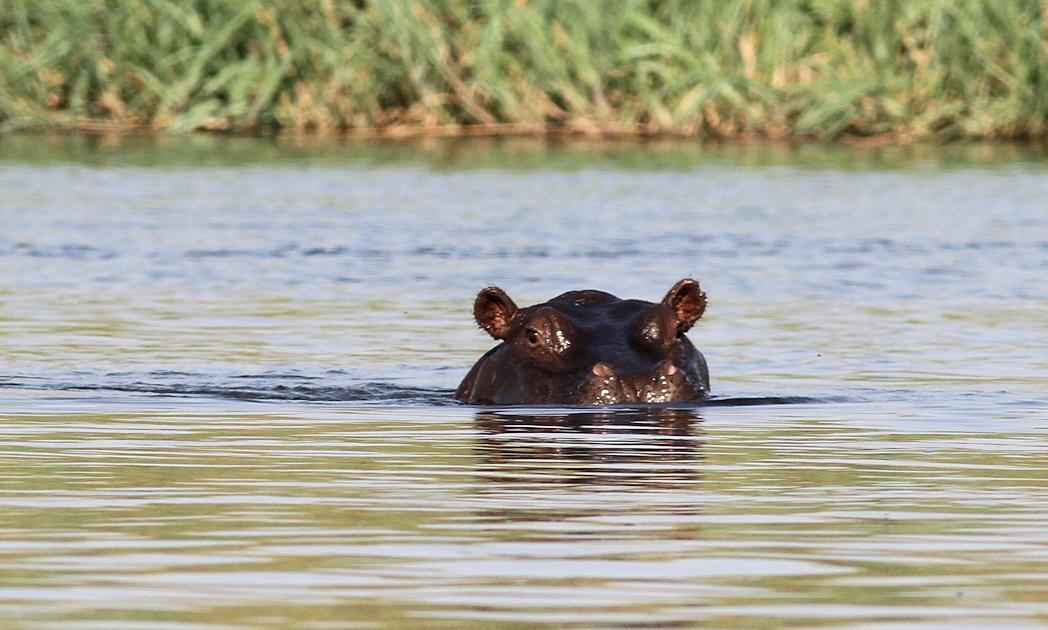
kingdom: Animalia
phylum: Chordata
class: Mammalia
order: Artiodactyla
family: Hippopotamidae
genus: Hippopotamus
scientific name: Hippopotamus amphibius
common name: Common hippopotamus
